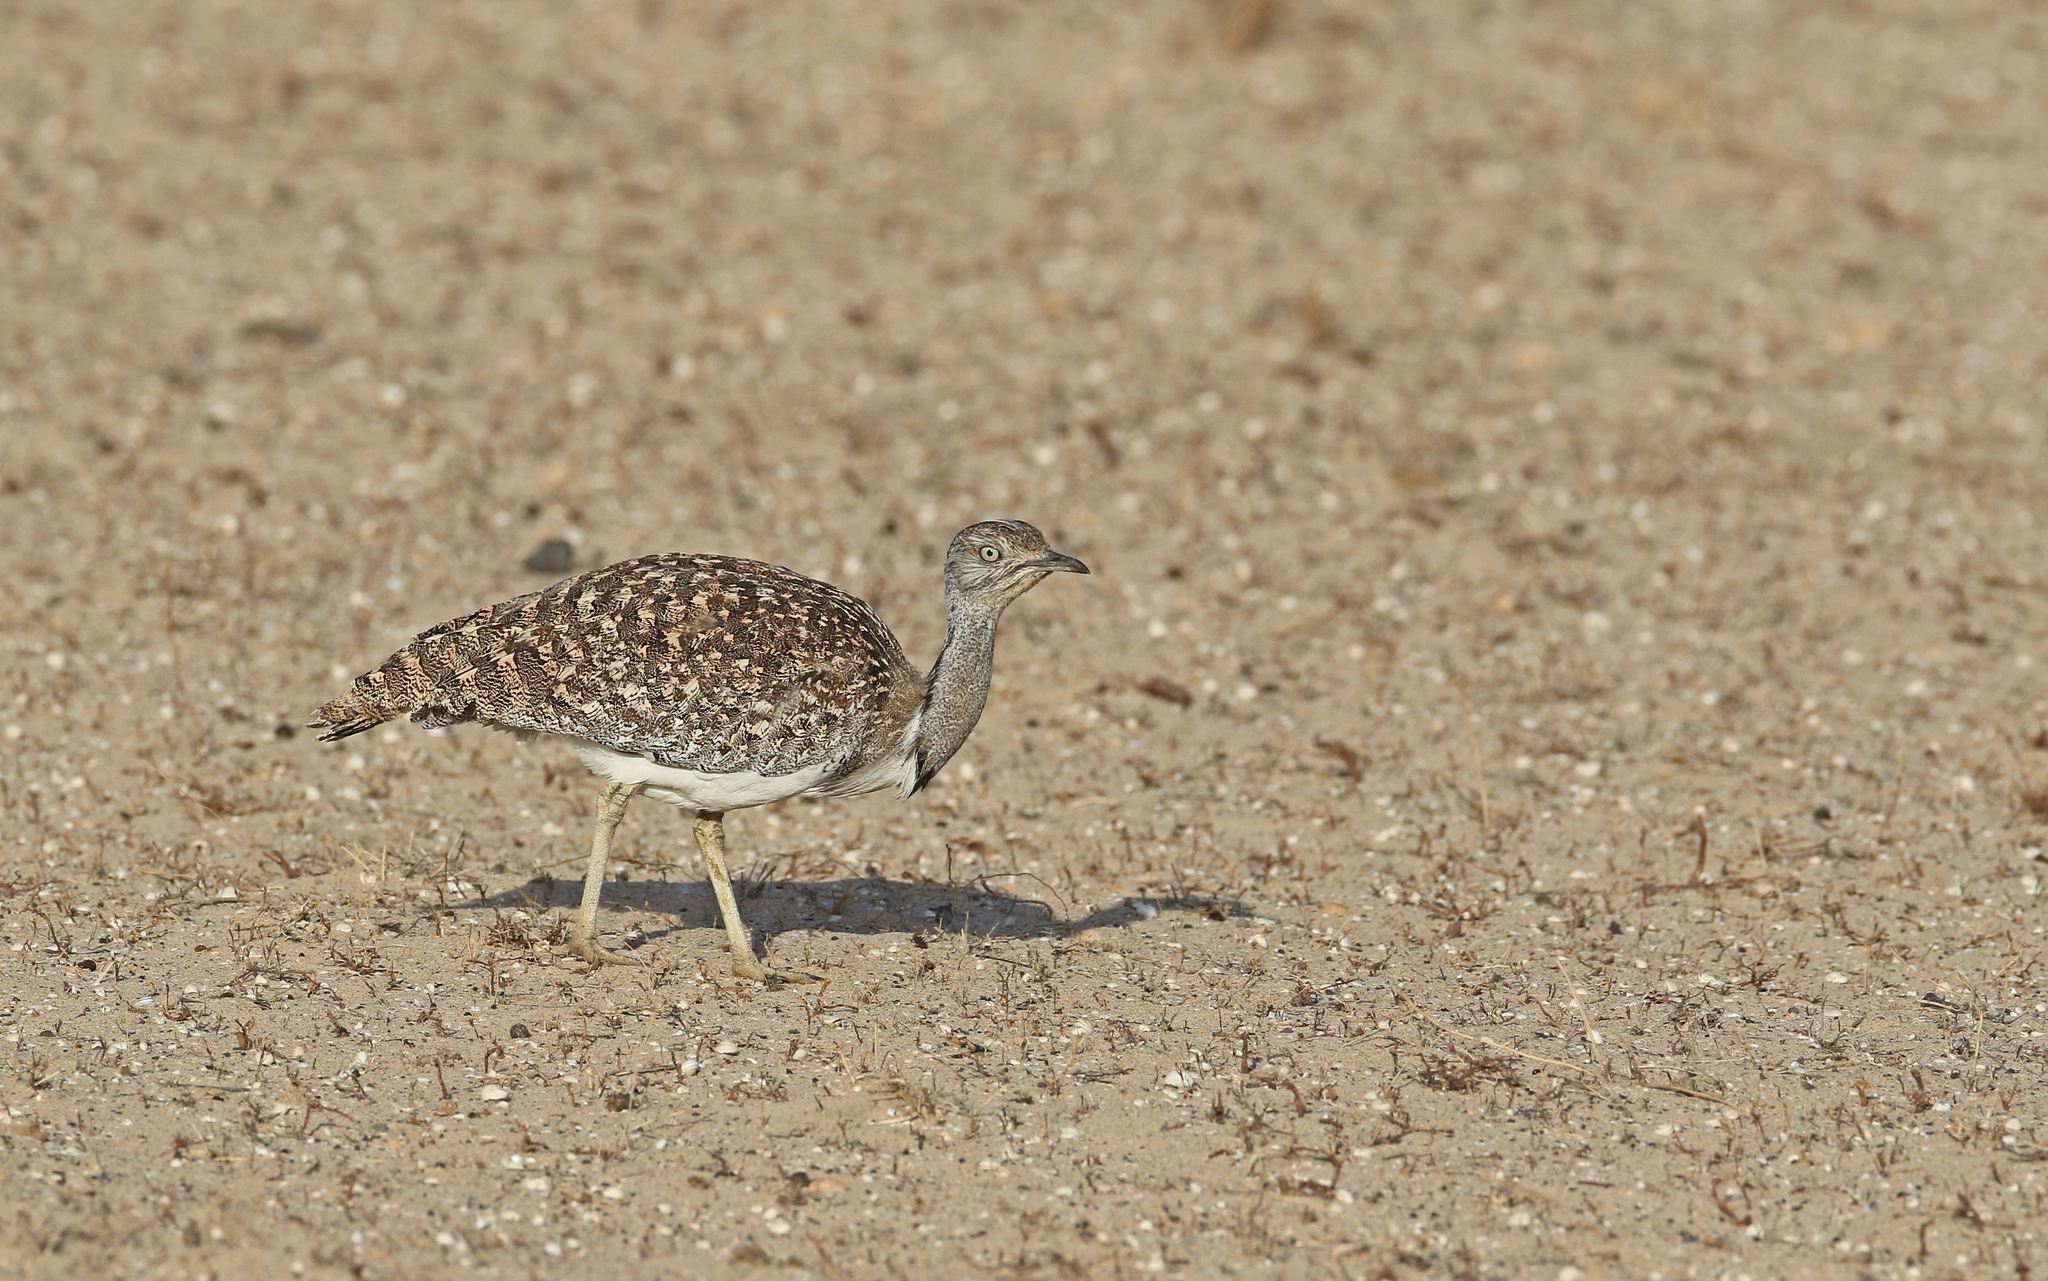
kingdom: Animalia
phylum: Chordata
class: Aves
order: Otidiformes
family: Otididae
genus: Chlamydotis
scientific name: Chlamydotis undulata
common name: Houbara bustard
